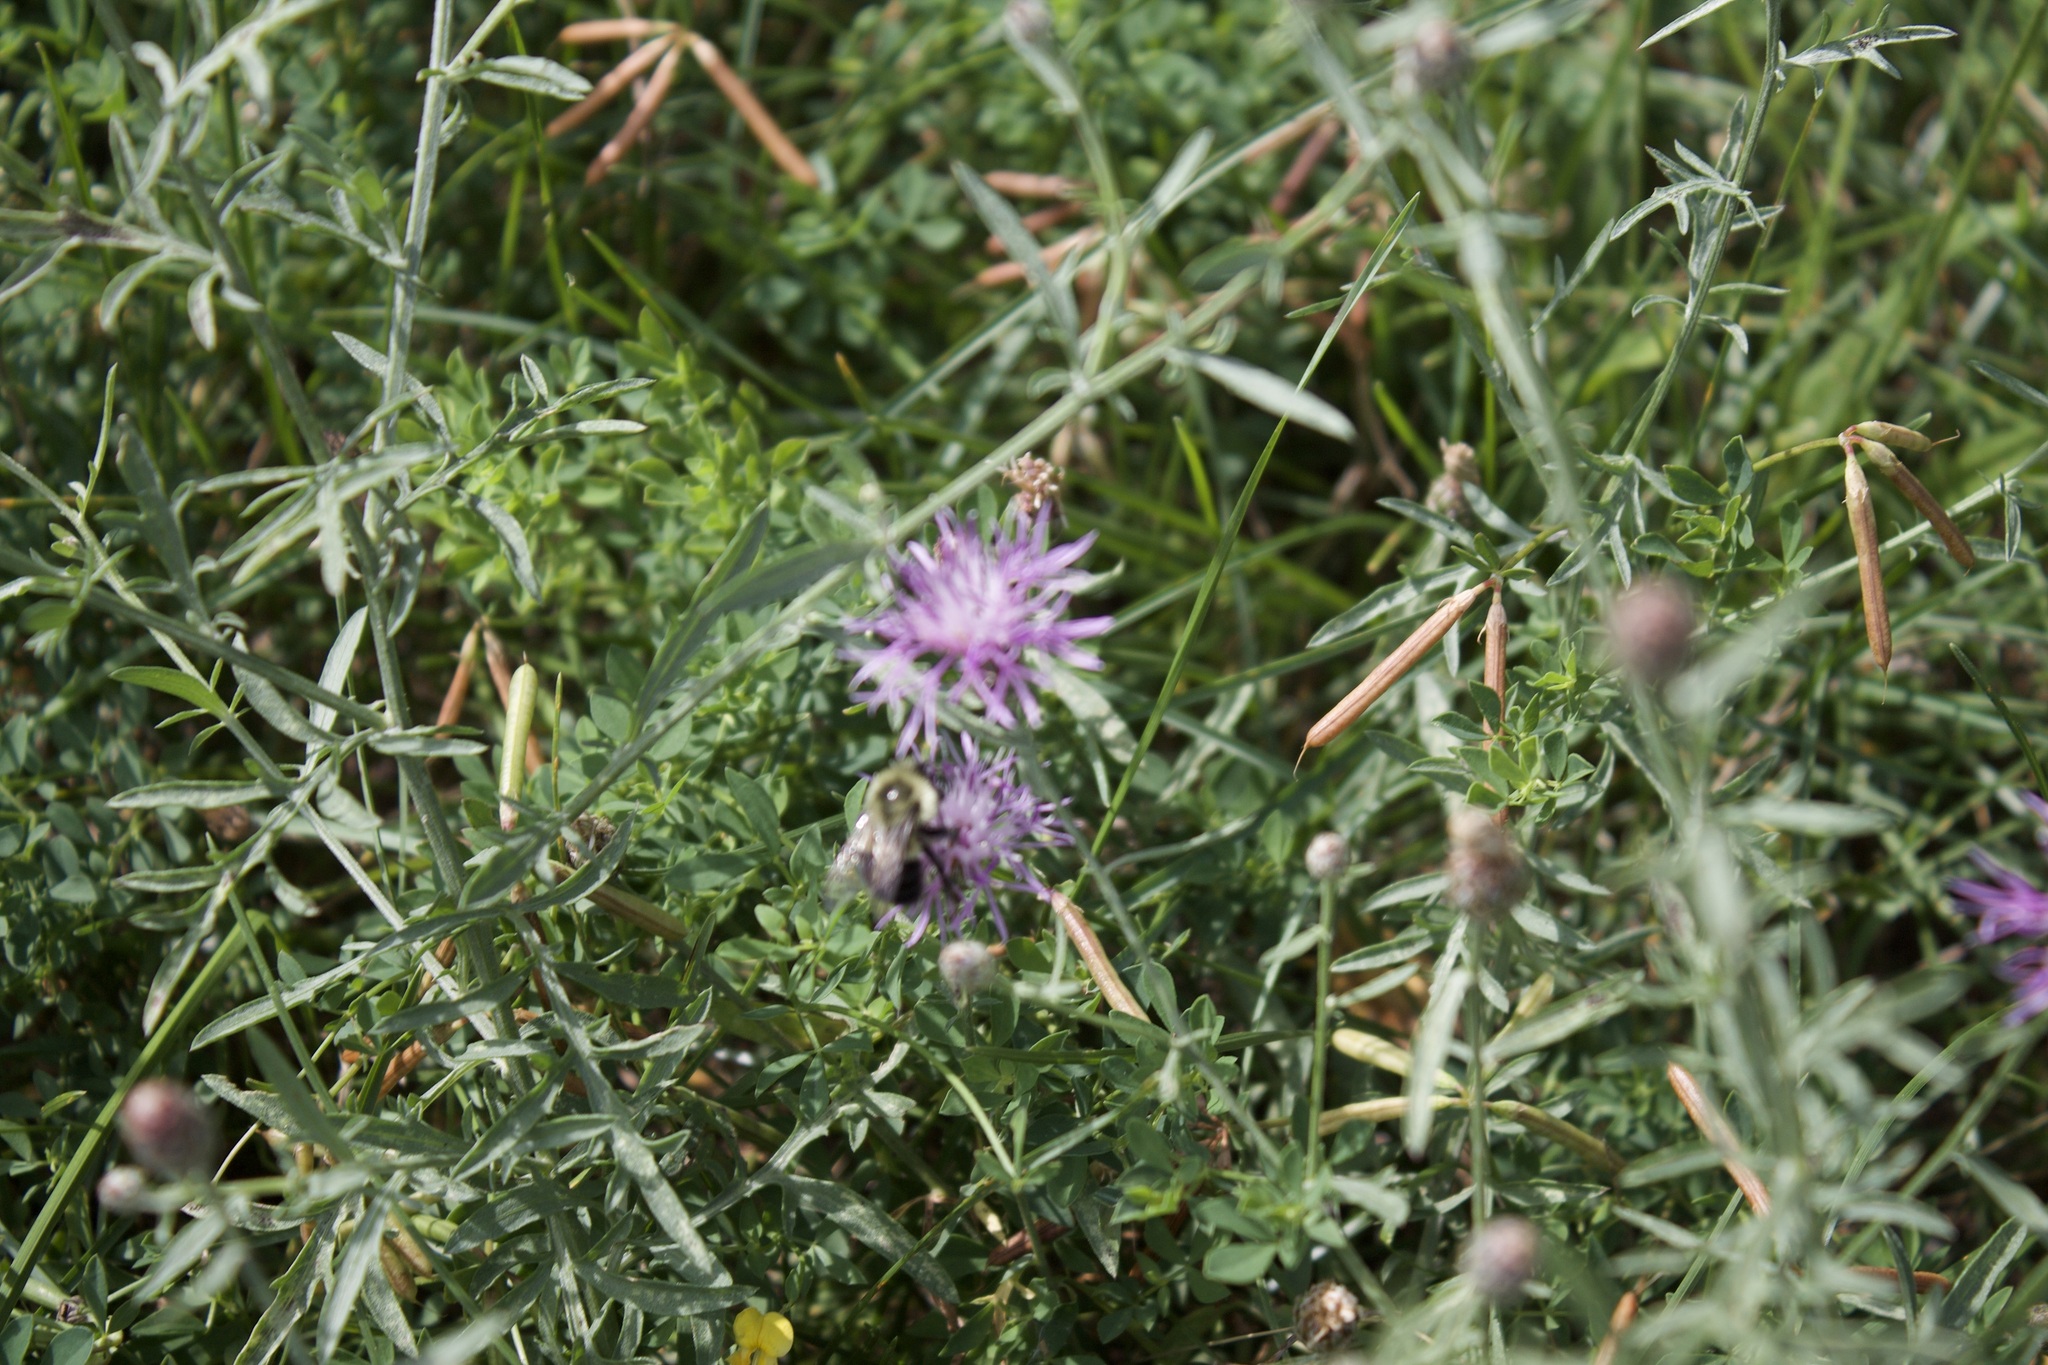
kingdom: Animalia
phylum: Arthropoda
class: Insecta
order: Hymenoptera
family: Apidae
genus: Bombus
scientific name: Bombus impatiens
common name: Common eastern bumble bee
